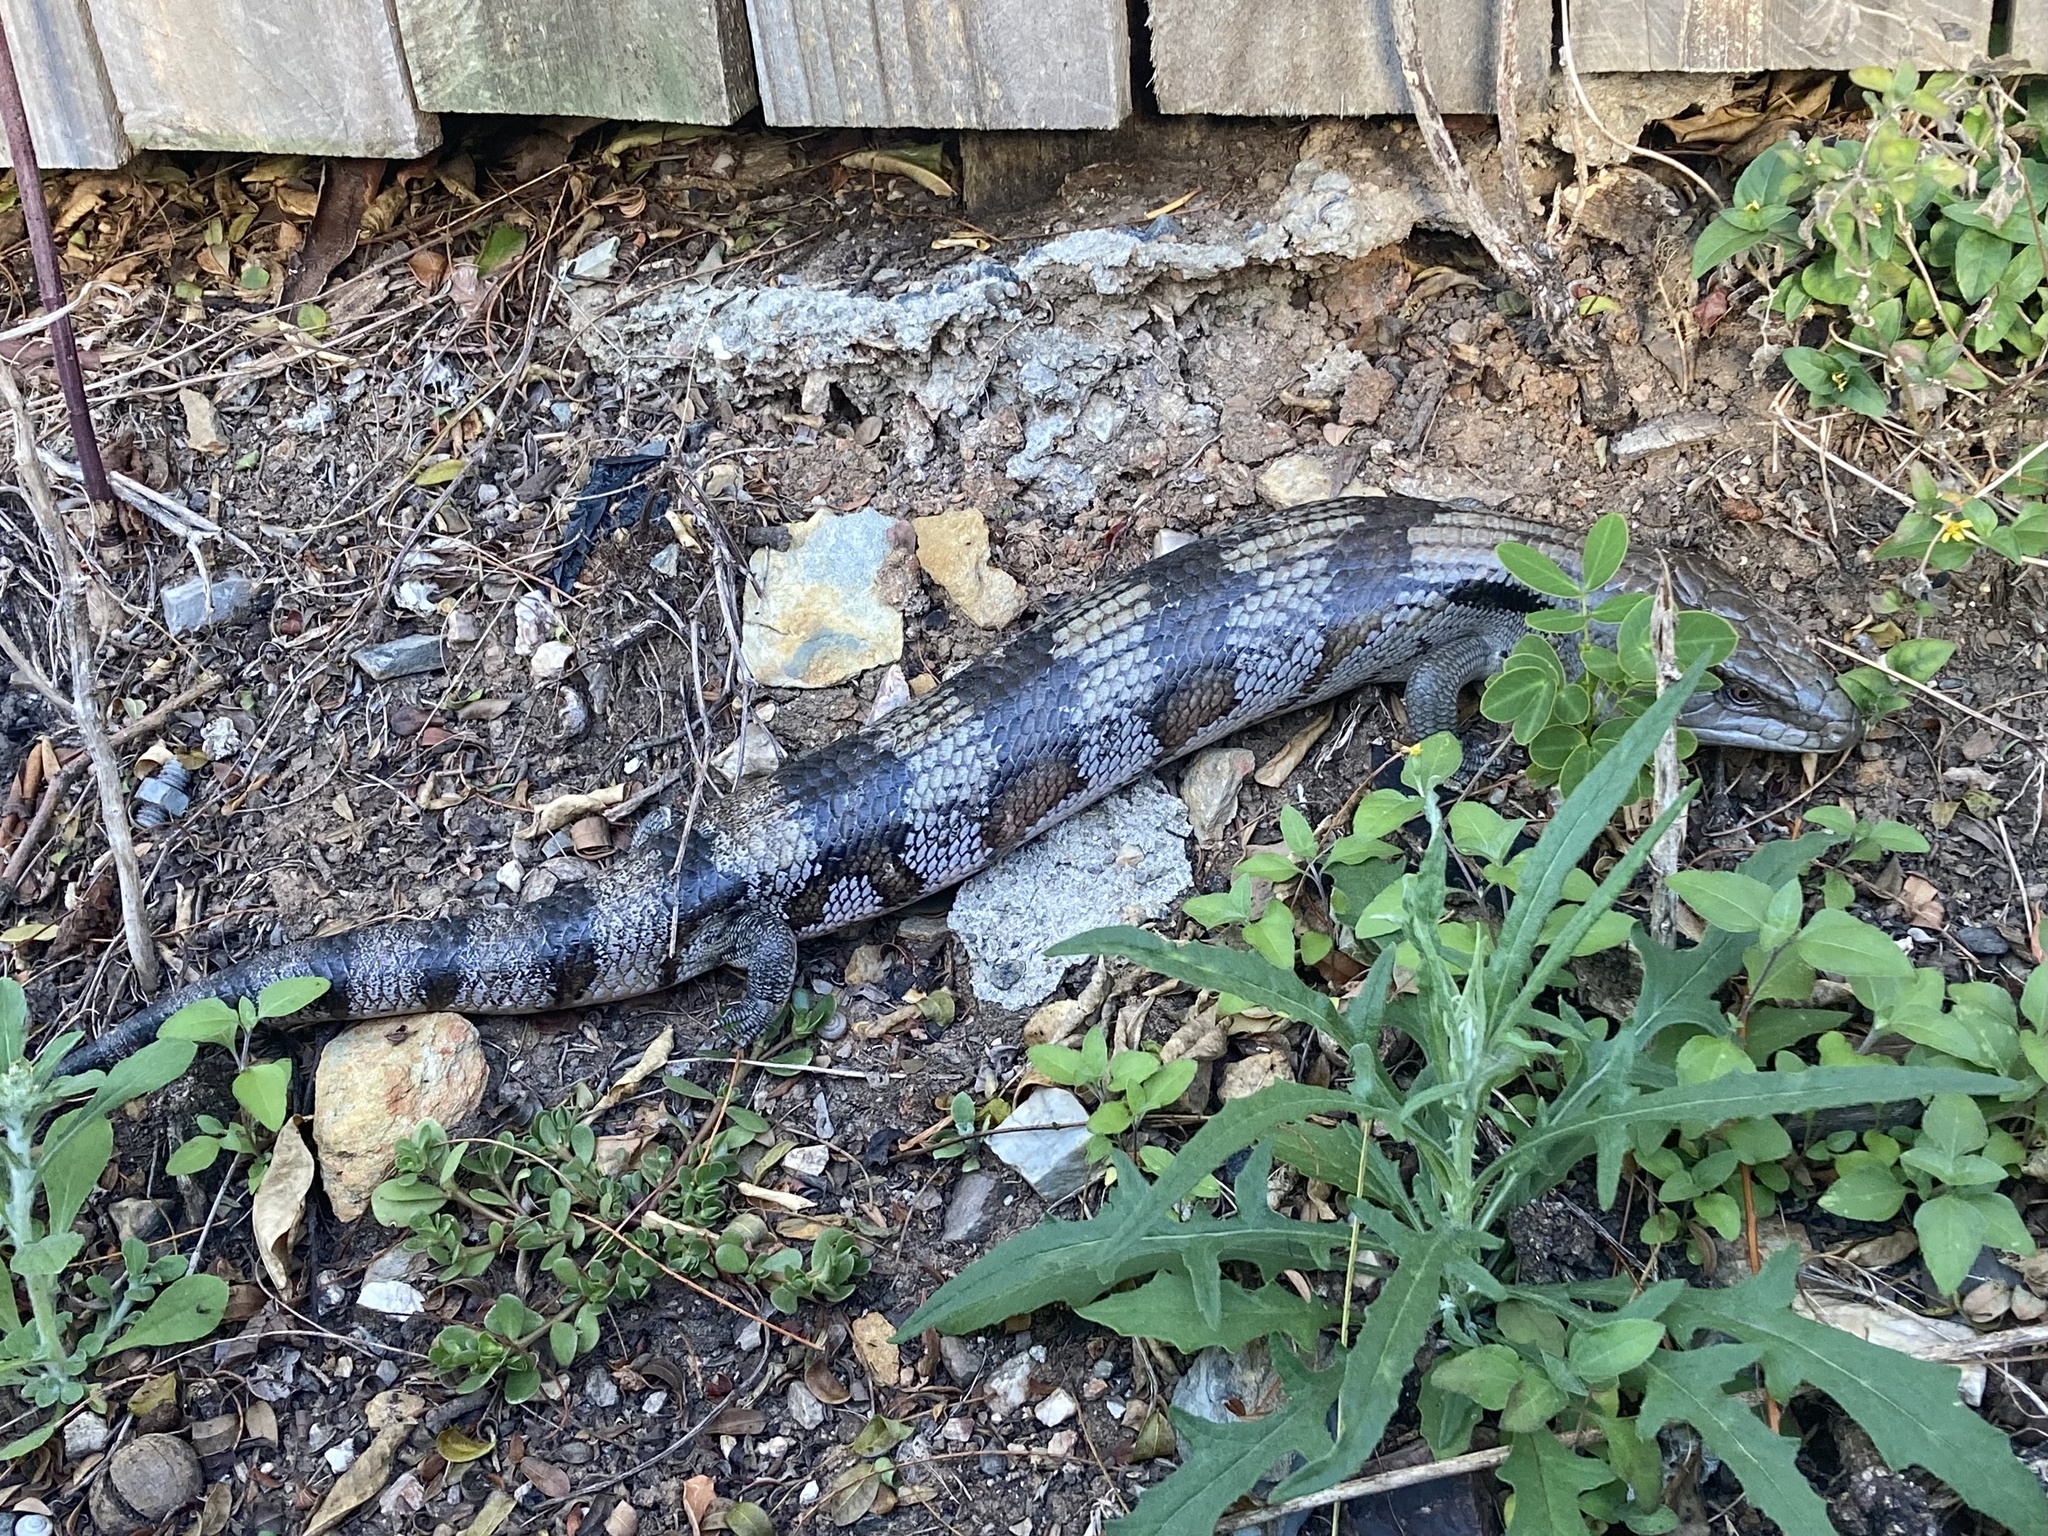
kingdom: Animalia
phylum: Chordata
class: Squamata
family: Scincidae
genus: Tiliqua
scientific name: Tiliqua scincoides
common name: Common bluetongue
